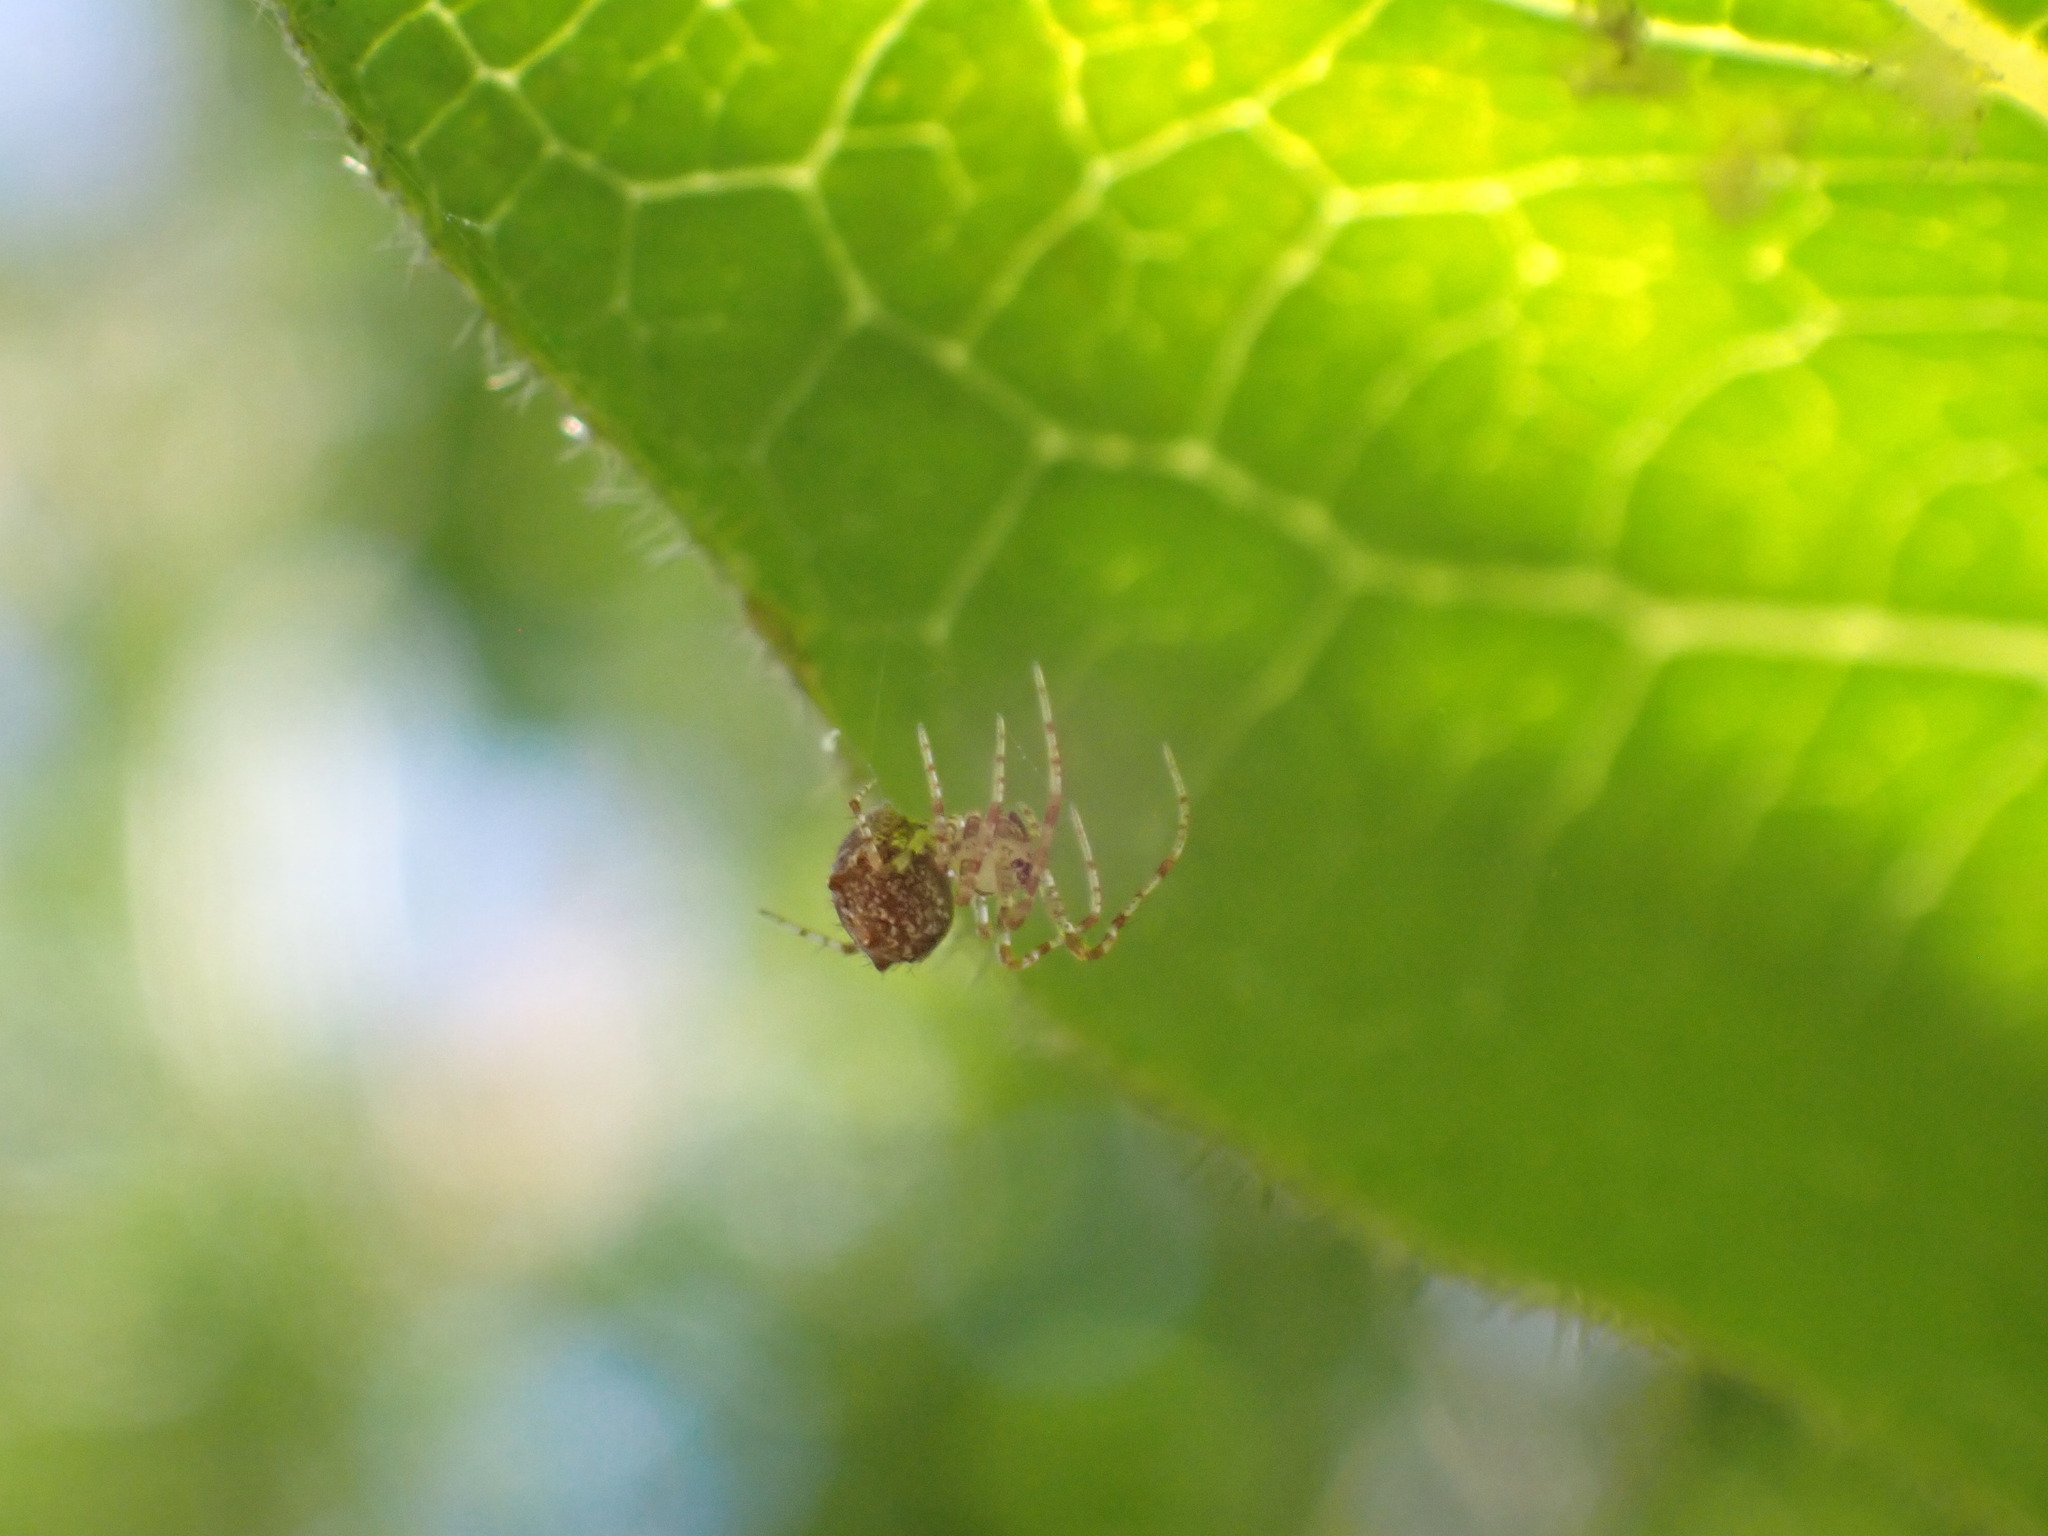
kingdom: Animalia
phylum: Arthropoda
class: Arachnida
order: Araneae
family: Mimetidae
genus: Ero
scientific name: Ero aphana
